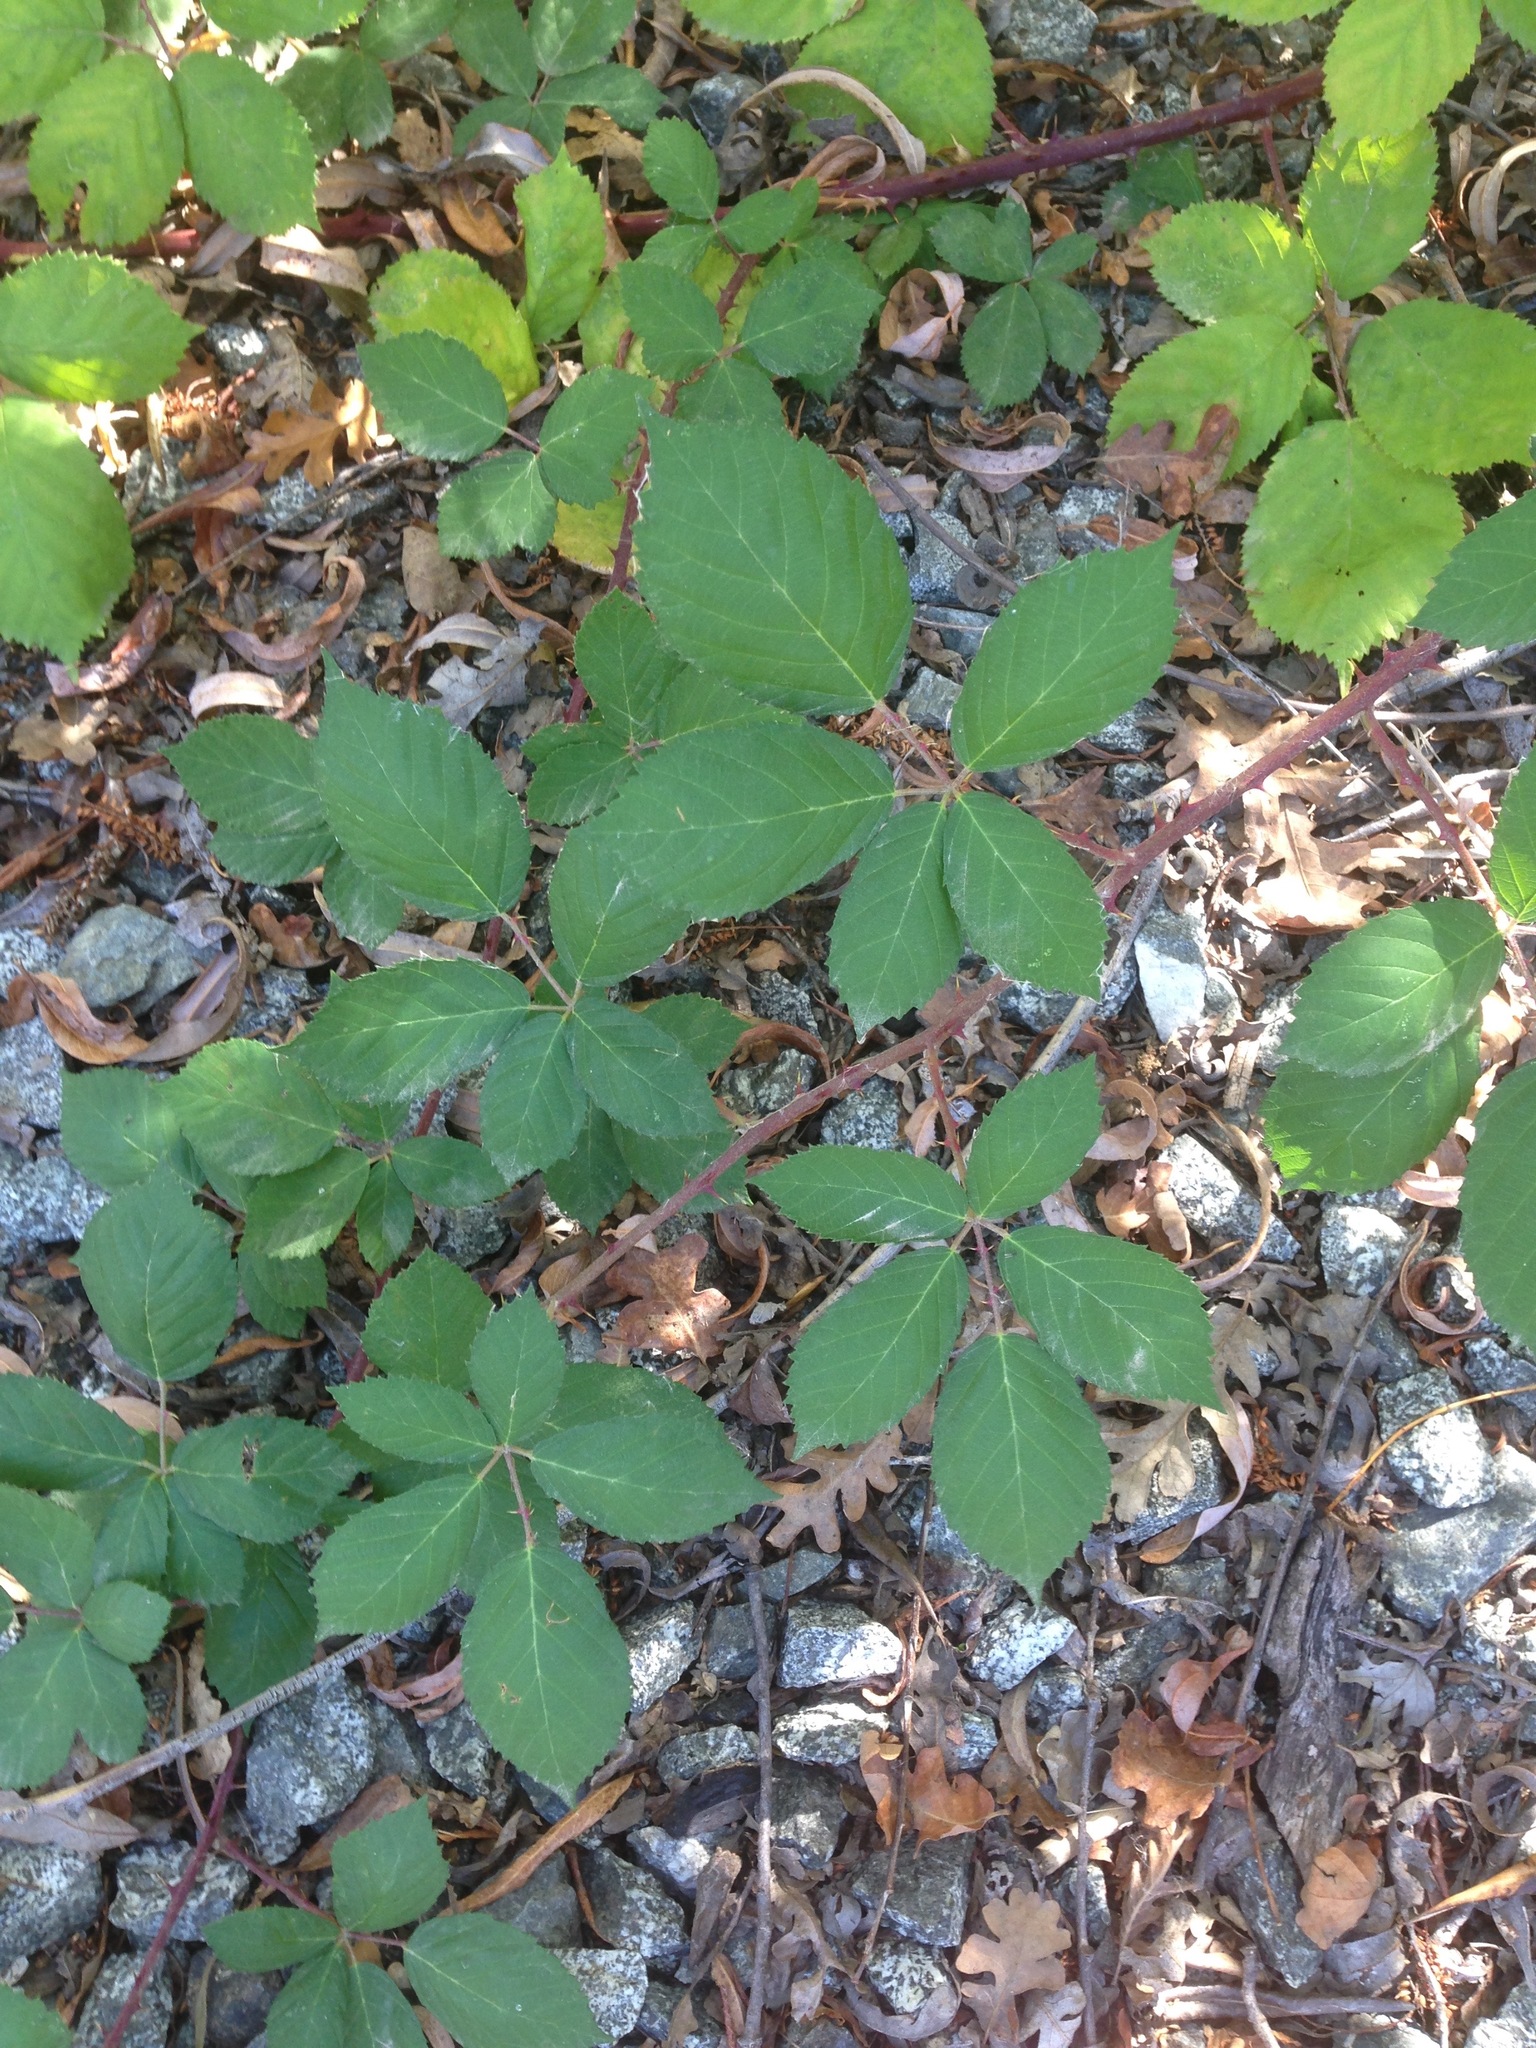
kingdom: Plantae
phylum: Tracheophyta
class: Magnoliopsida
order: Rosales
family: Rosaceae
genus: Rubus
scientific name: Rubus armeniacus
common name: Himalayan blackberry
